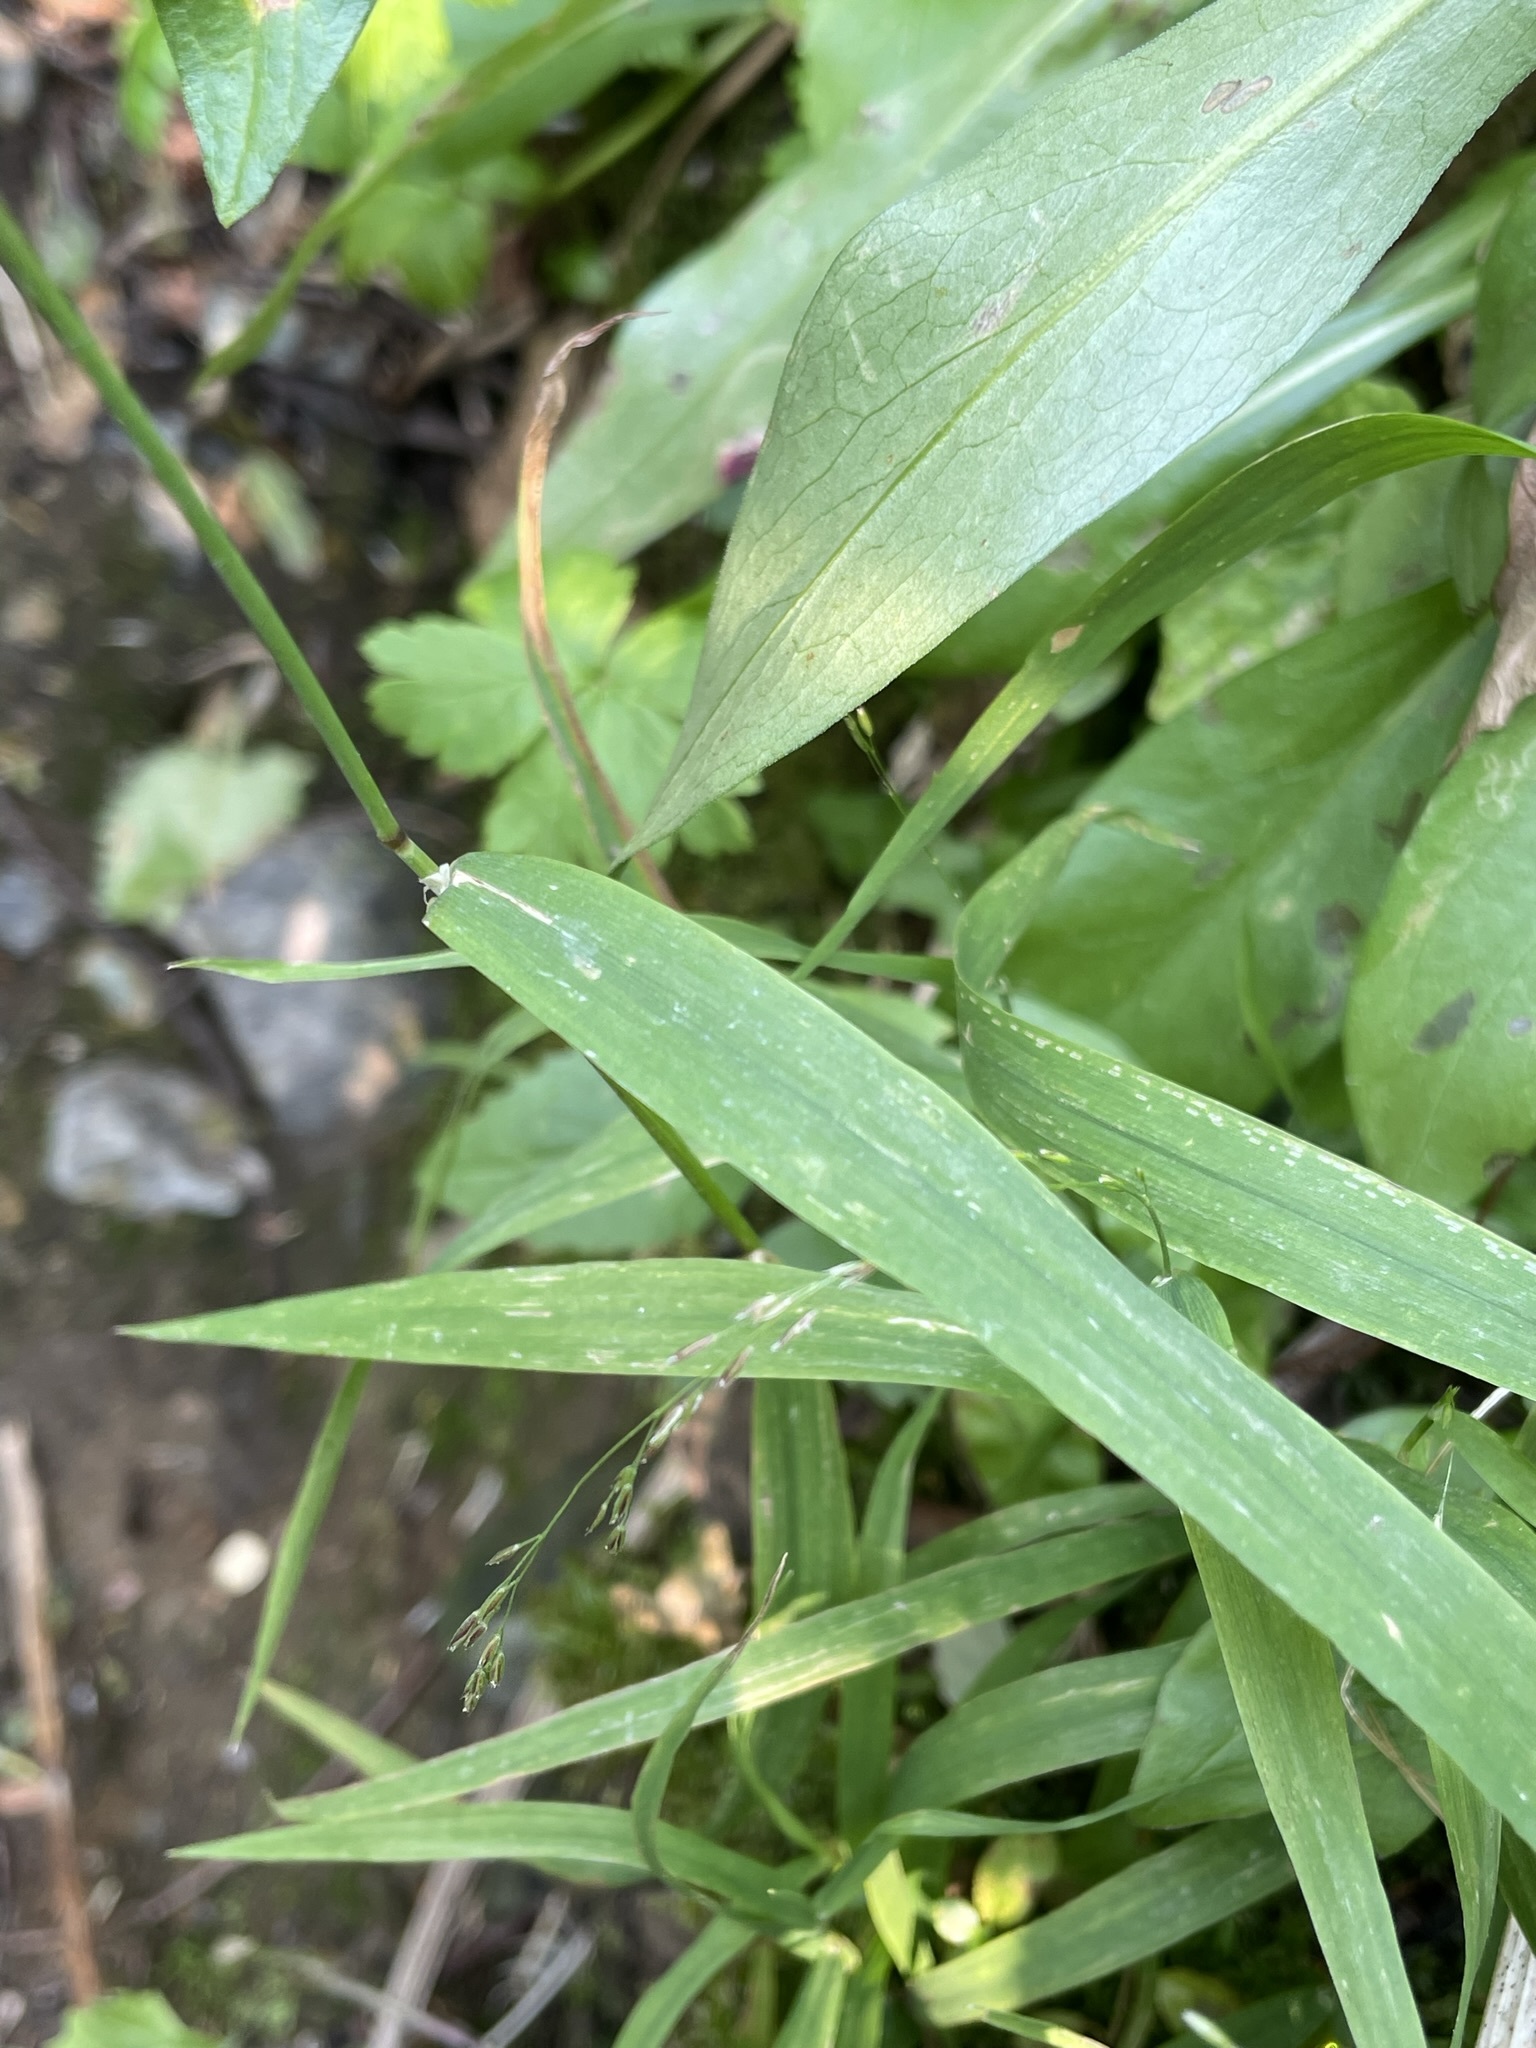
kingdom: Plantae
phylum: Tracheophyta
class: Liliopsida
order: Poales
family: Poaceae
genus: Cinna
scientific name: Cinna latifolia
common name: Drooping woodreed
